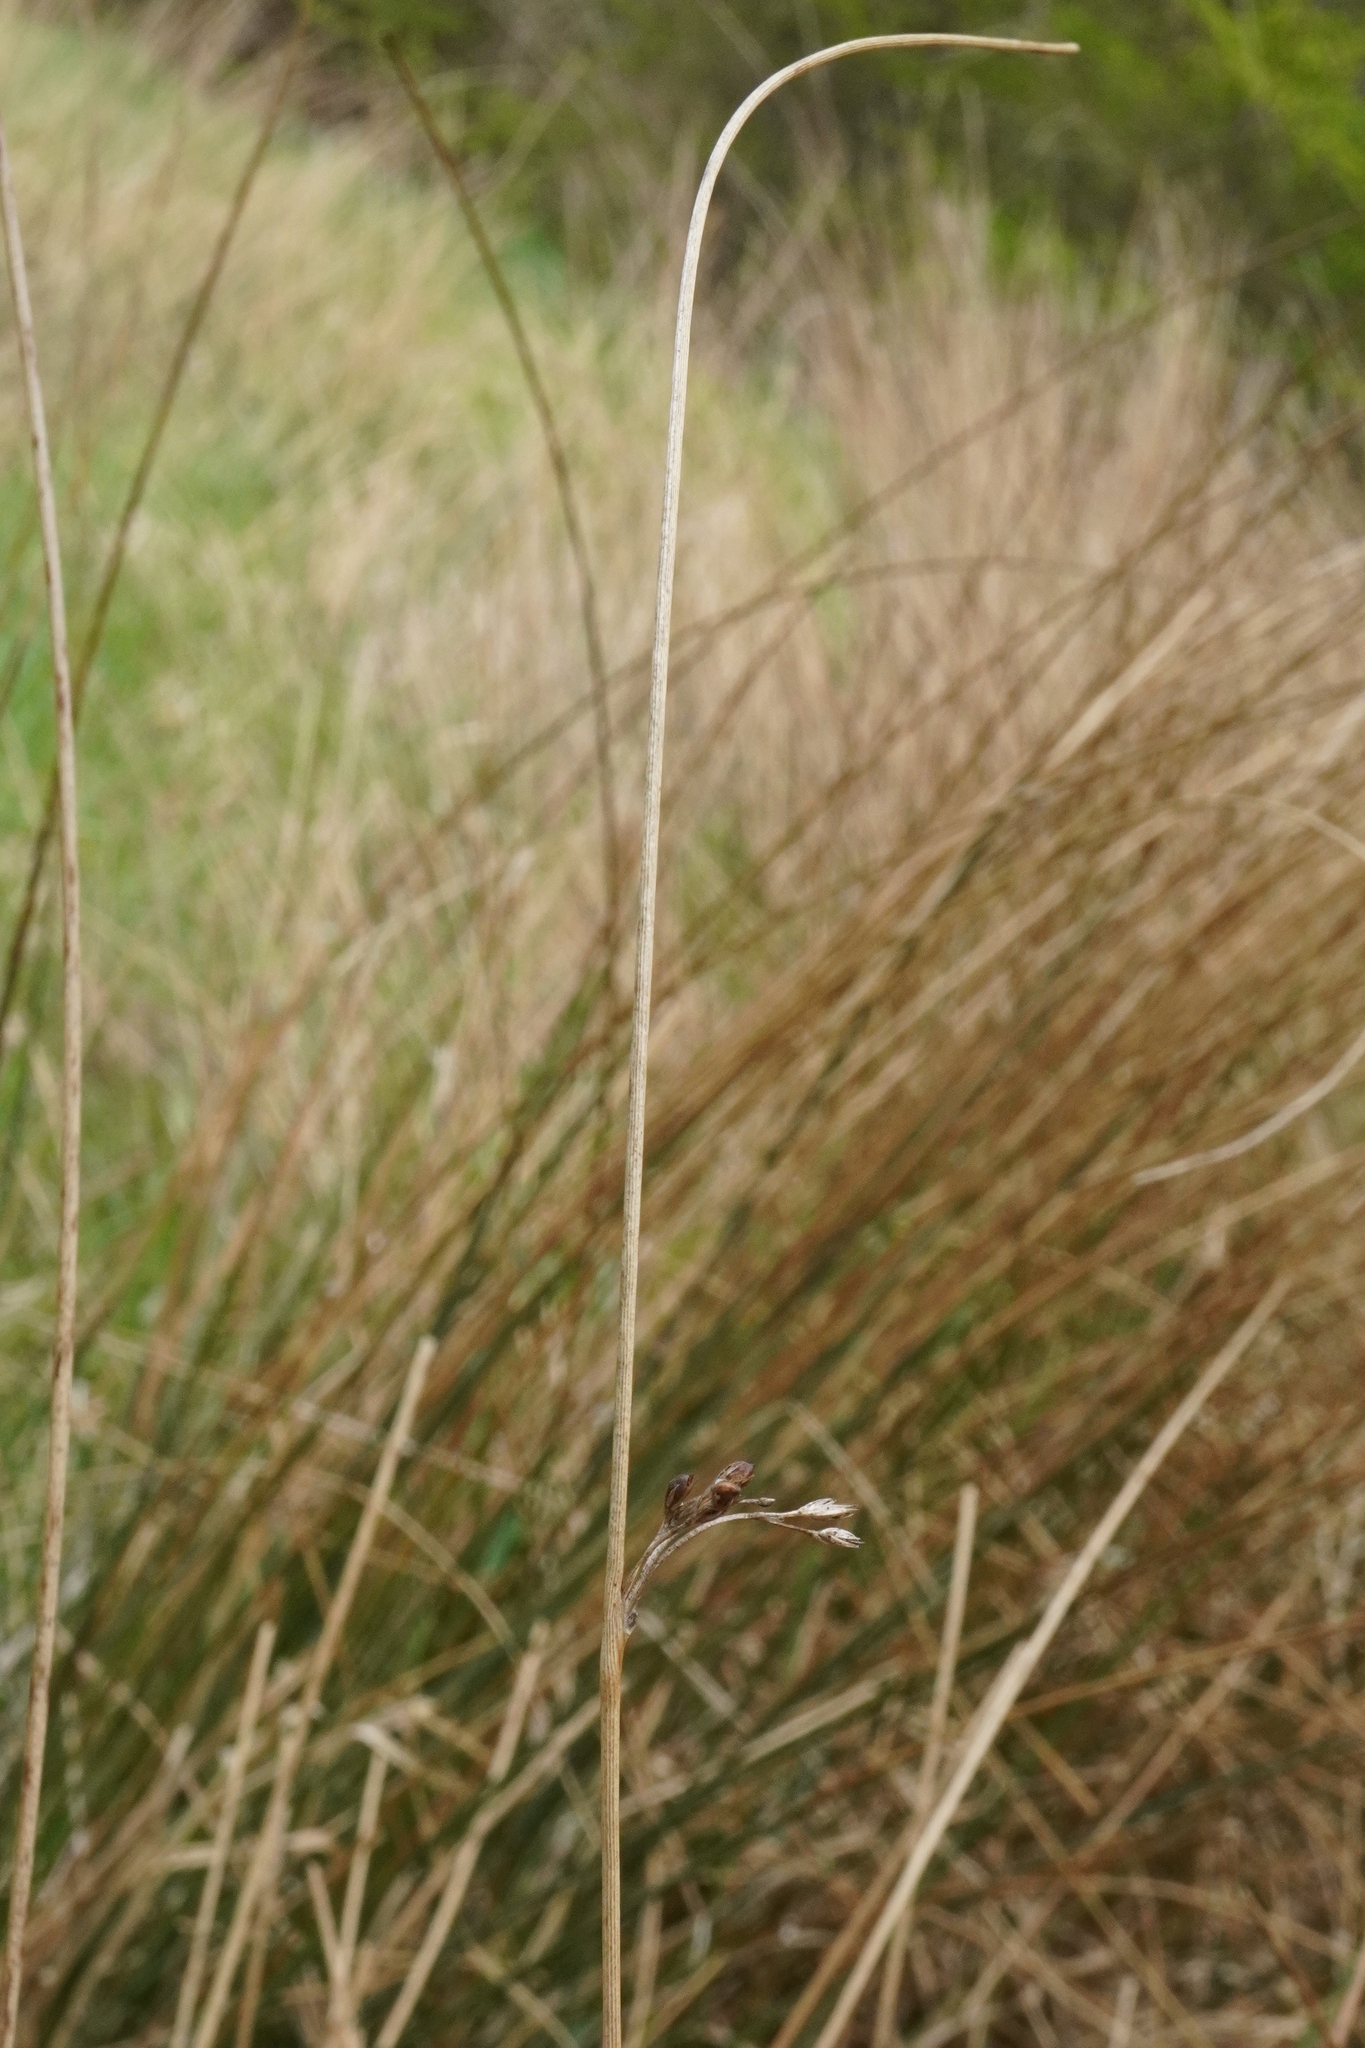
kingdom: Plantae
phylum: Tracheophyta
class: Liliopsida
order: Poales
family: Juncaceae
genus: Juncus
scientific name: Juncus inflexus
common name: Hard rush
